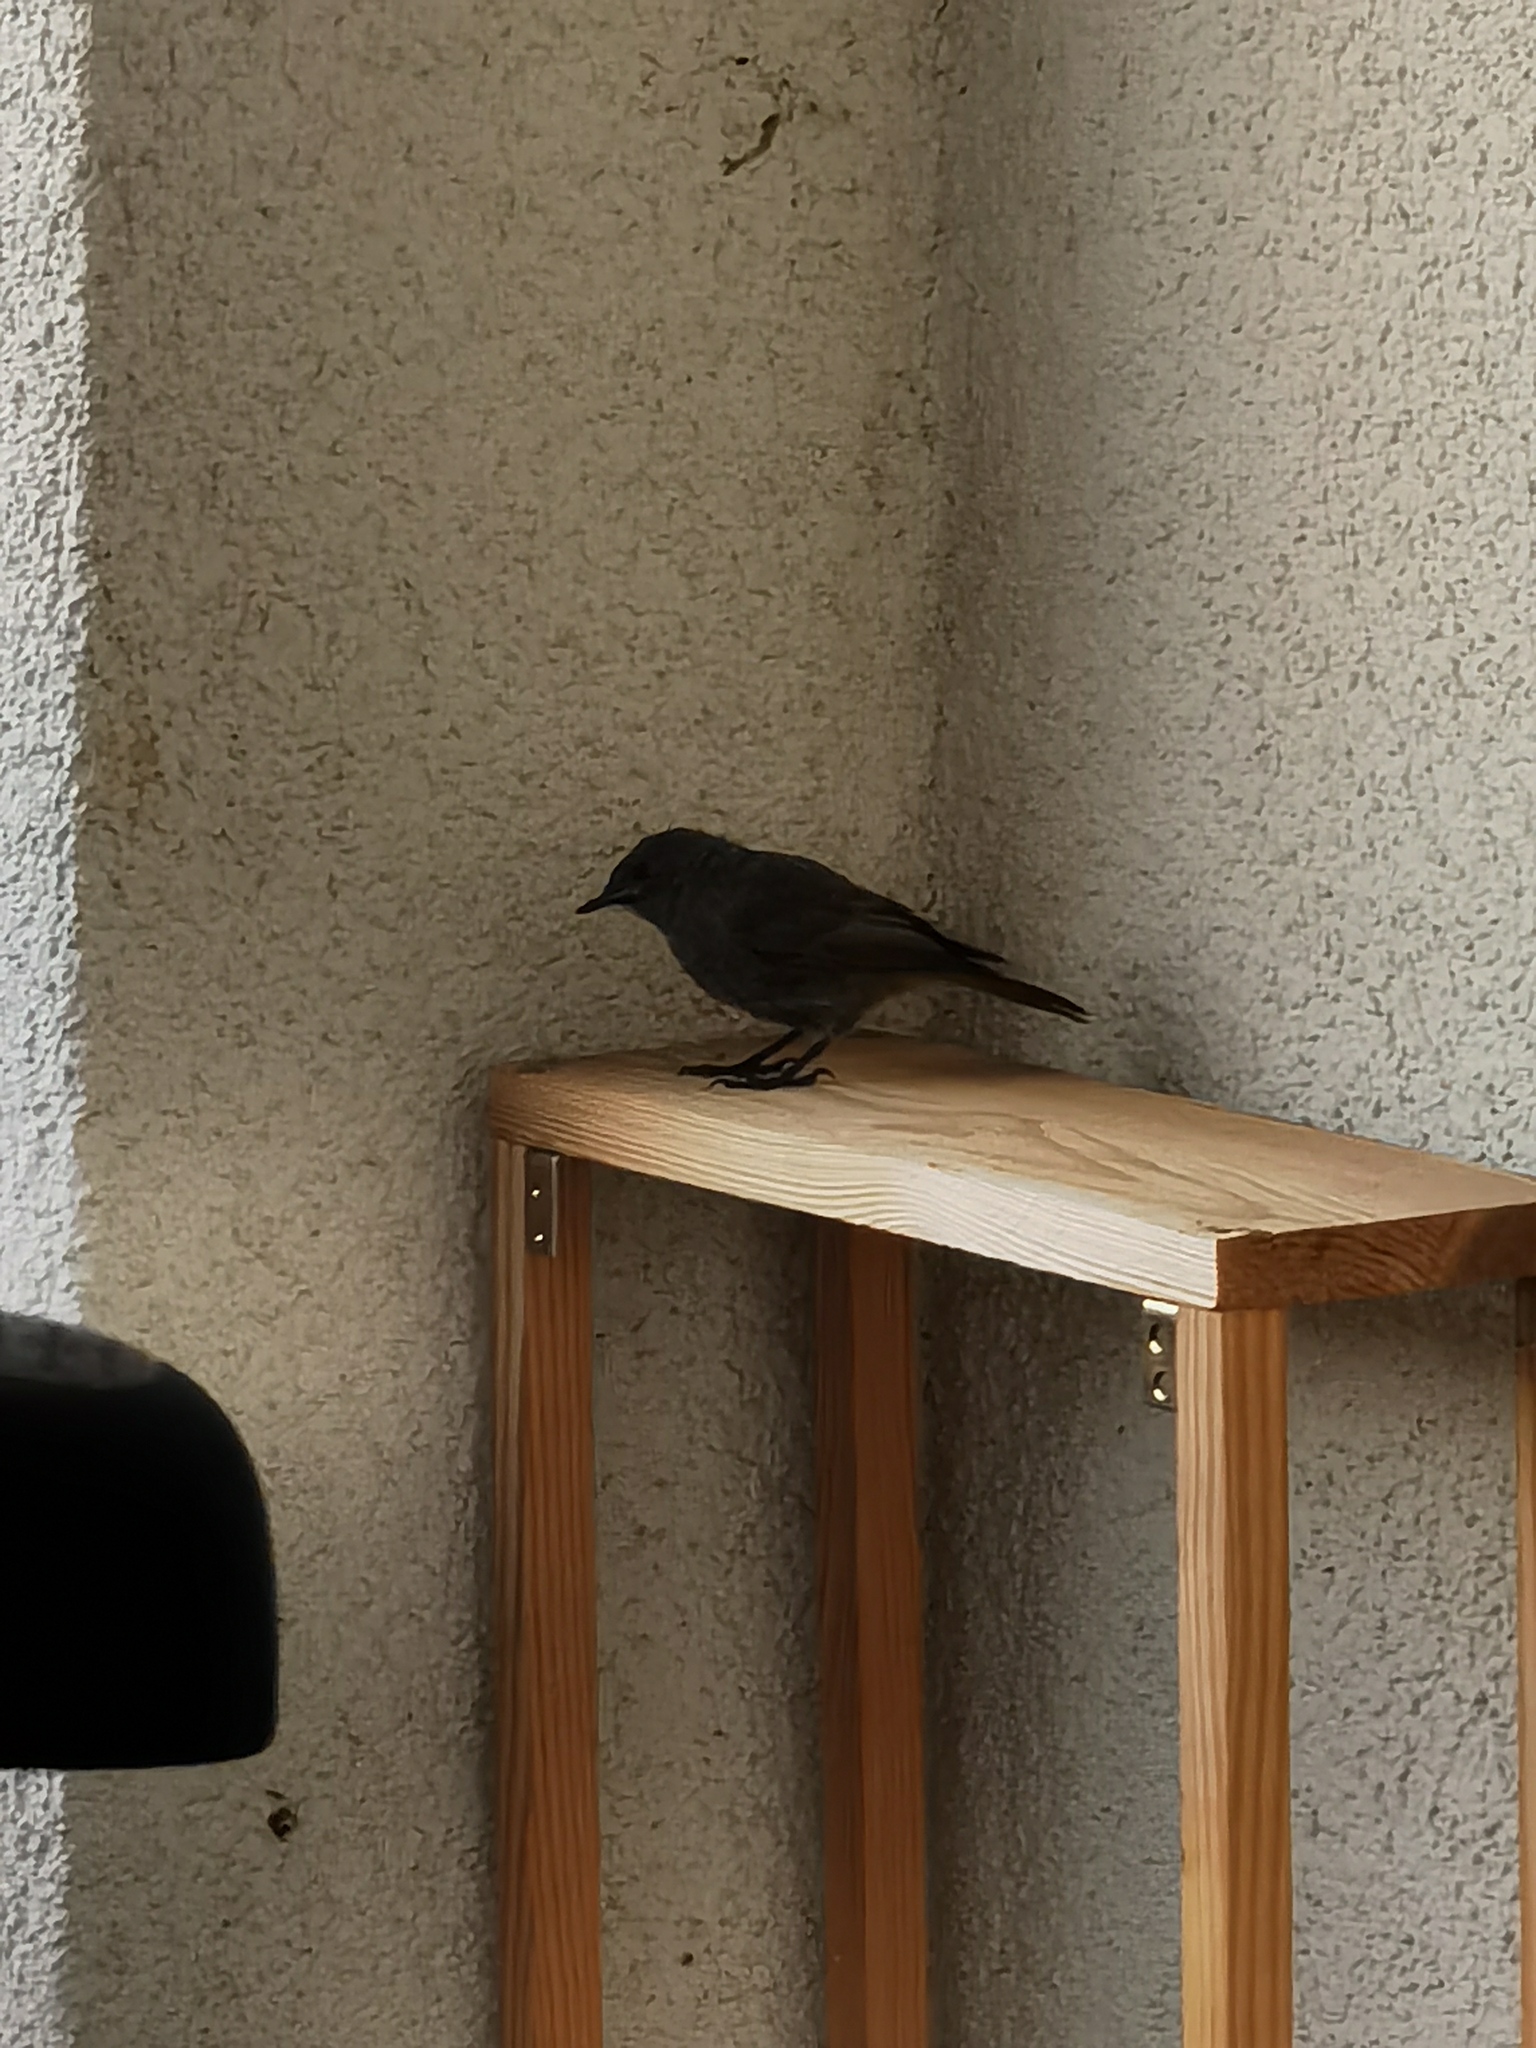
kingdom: Animalia
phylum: Chordata
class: Aves
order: Passeriformes
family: Muscicapidae
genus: Phoenicurus
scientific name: Phoenicurus ochruros
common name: Black redstart
